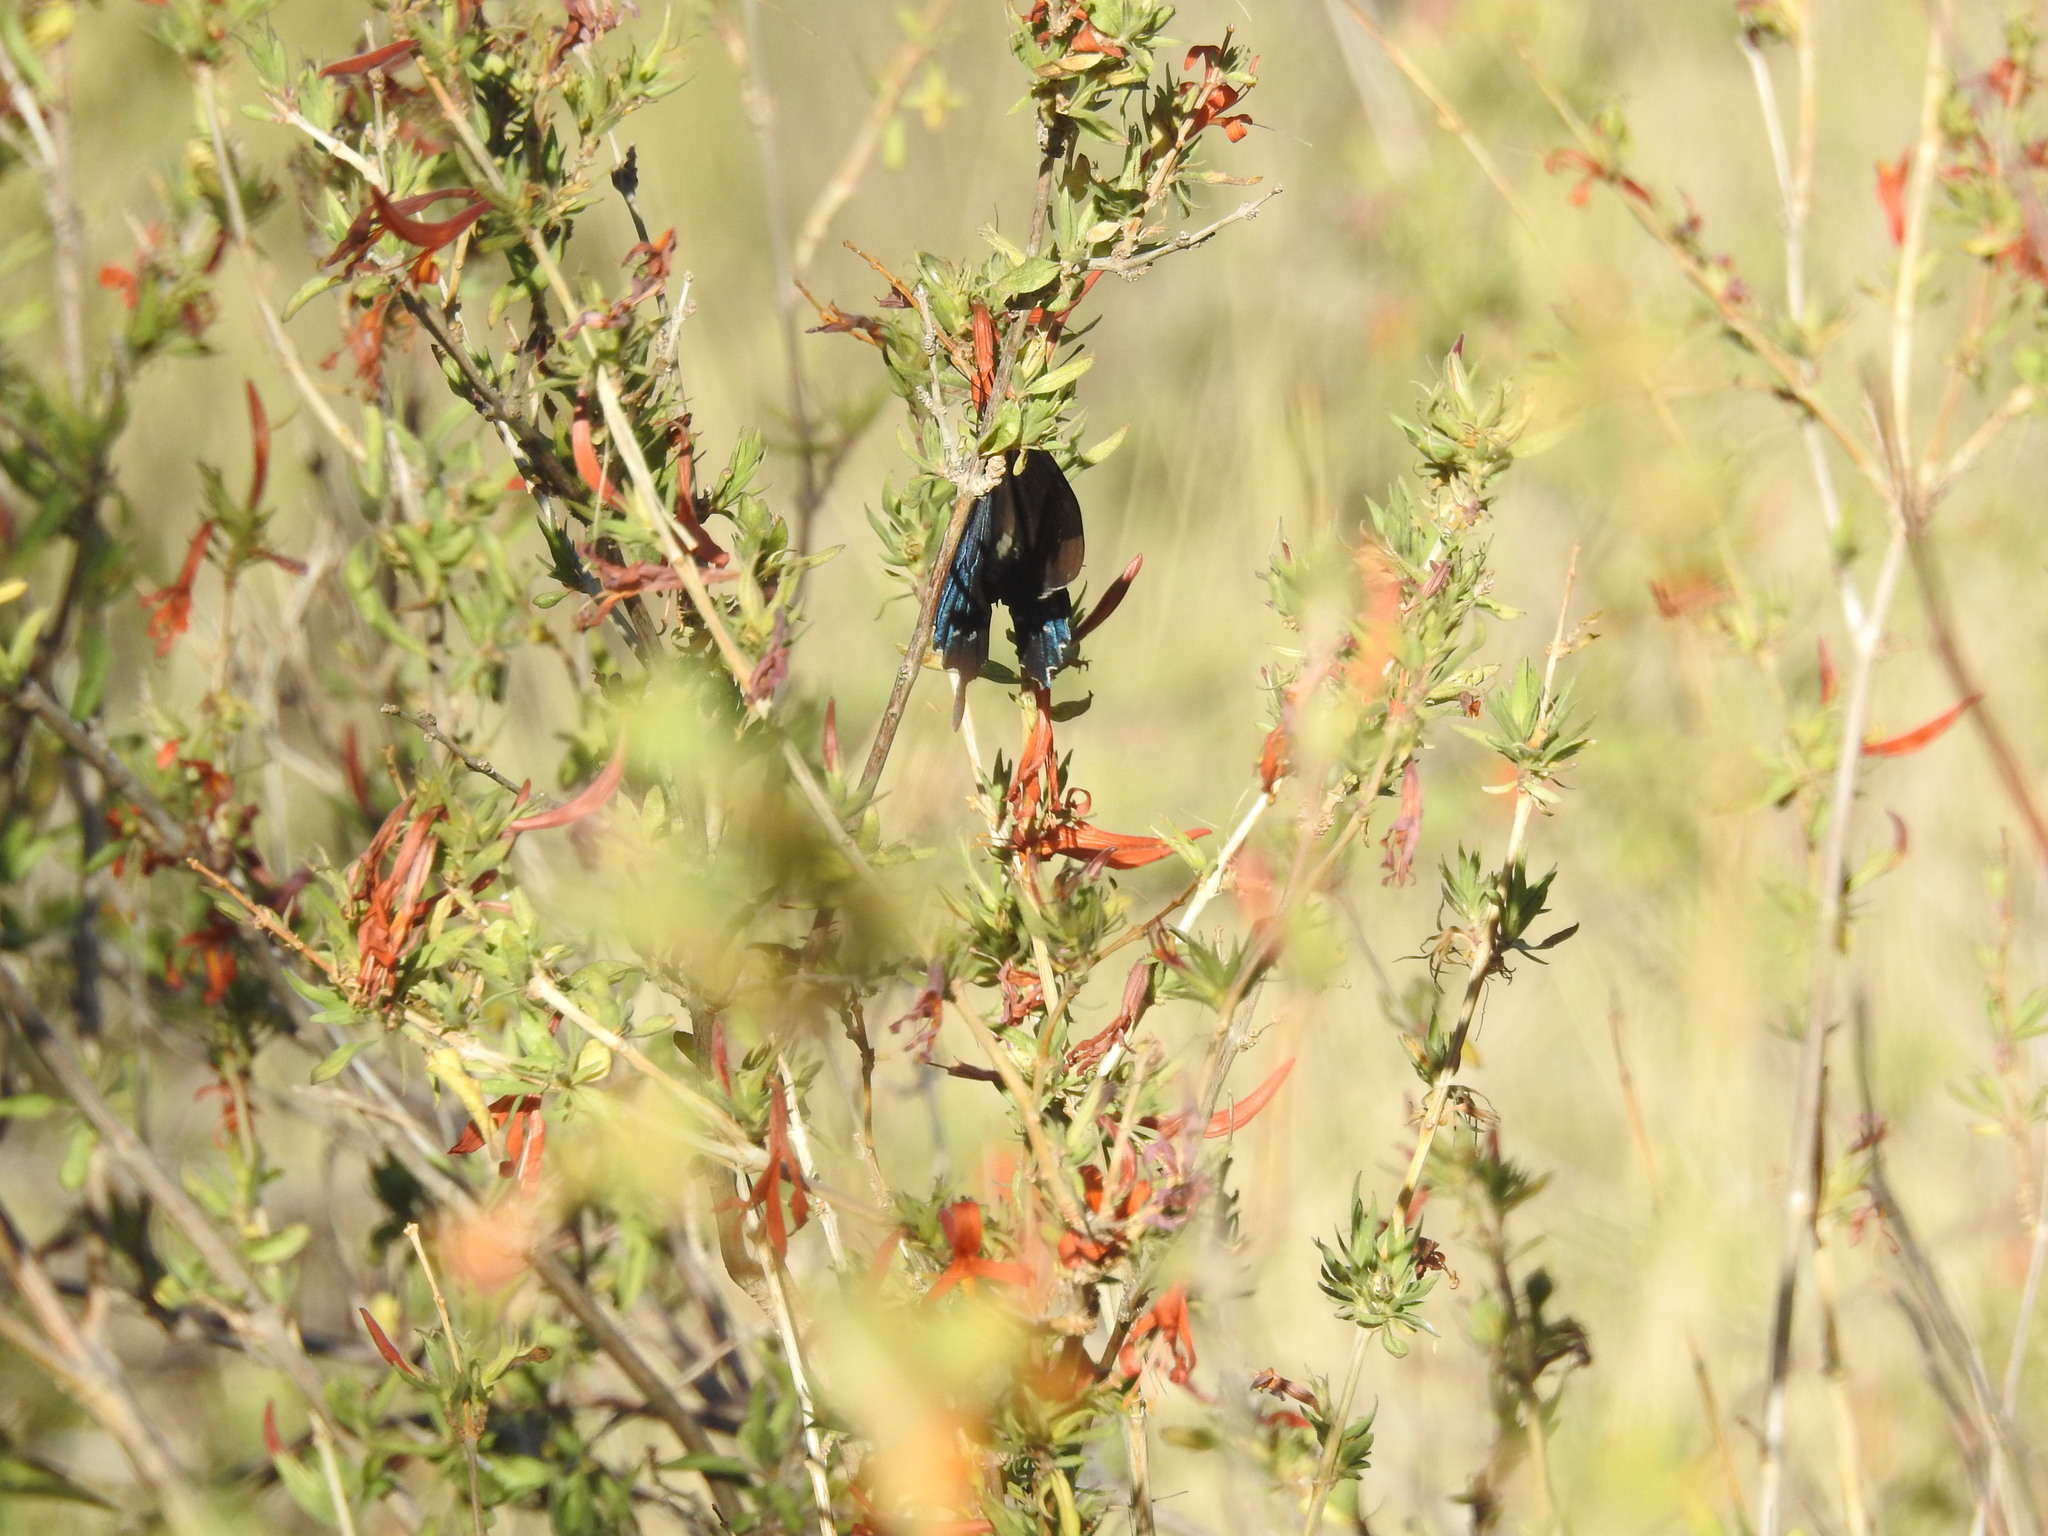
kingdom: Animalia
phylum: Arthropoda
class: Insecta
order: Lepidoptera
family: Papilionidae
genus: Battus
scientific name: Battus philenor
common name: Pipevine swallowtail
